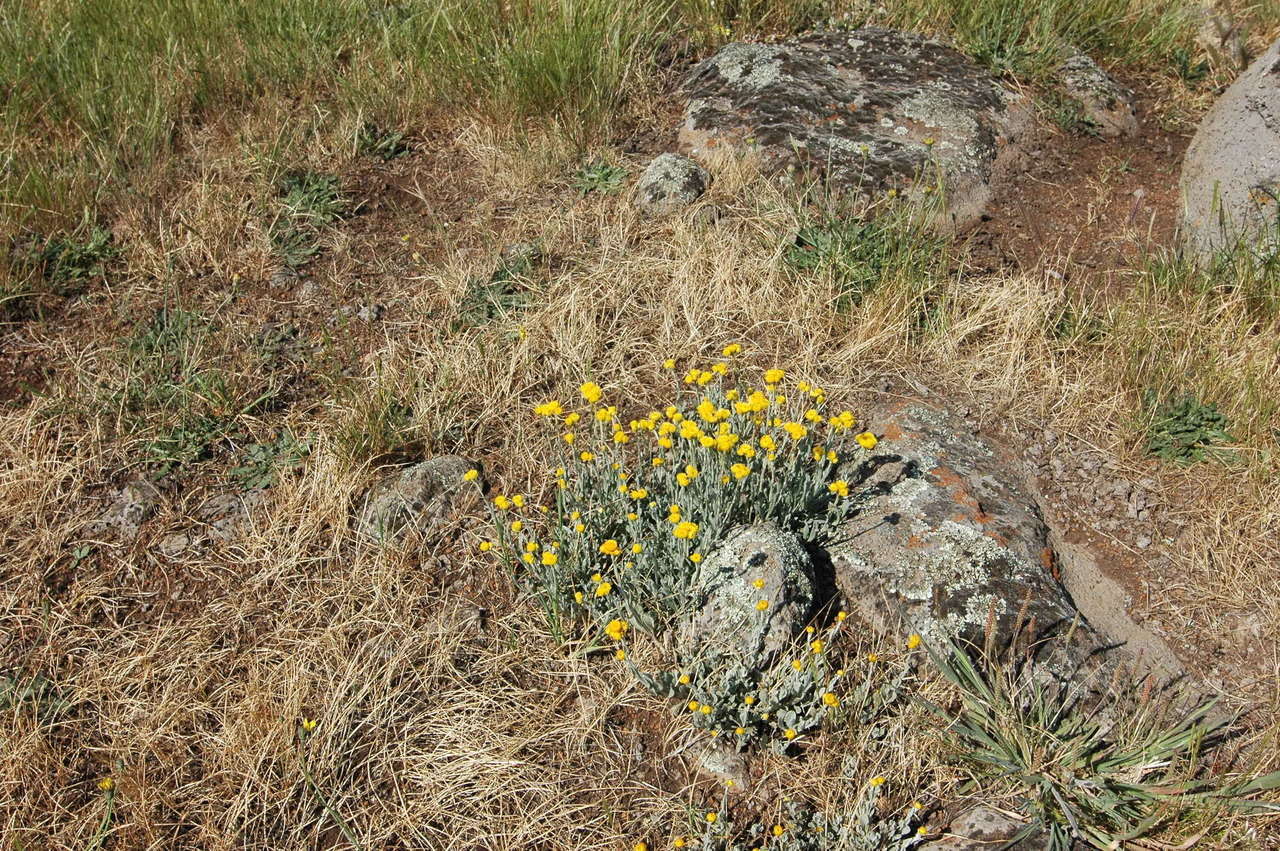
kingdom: Plantae
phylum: Tracheophyta
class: Magnoliopsida
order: Asterales
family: Asteraceae
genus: Chrysocephalum
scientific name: Chrysocephalum apiculatum
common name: Common everlasting
